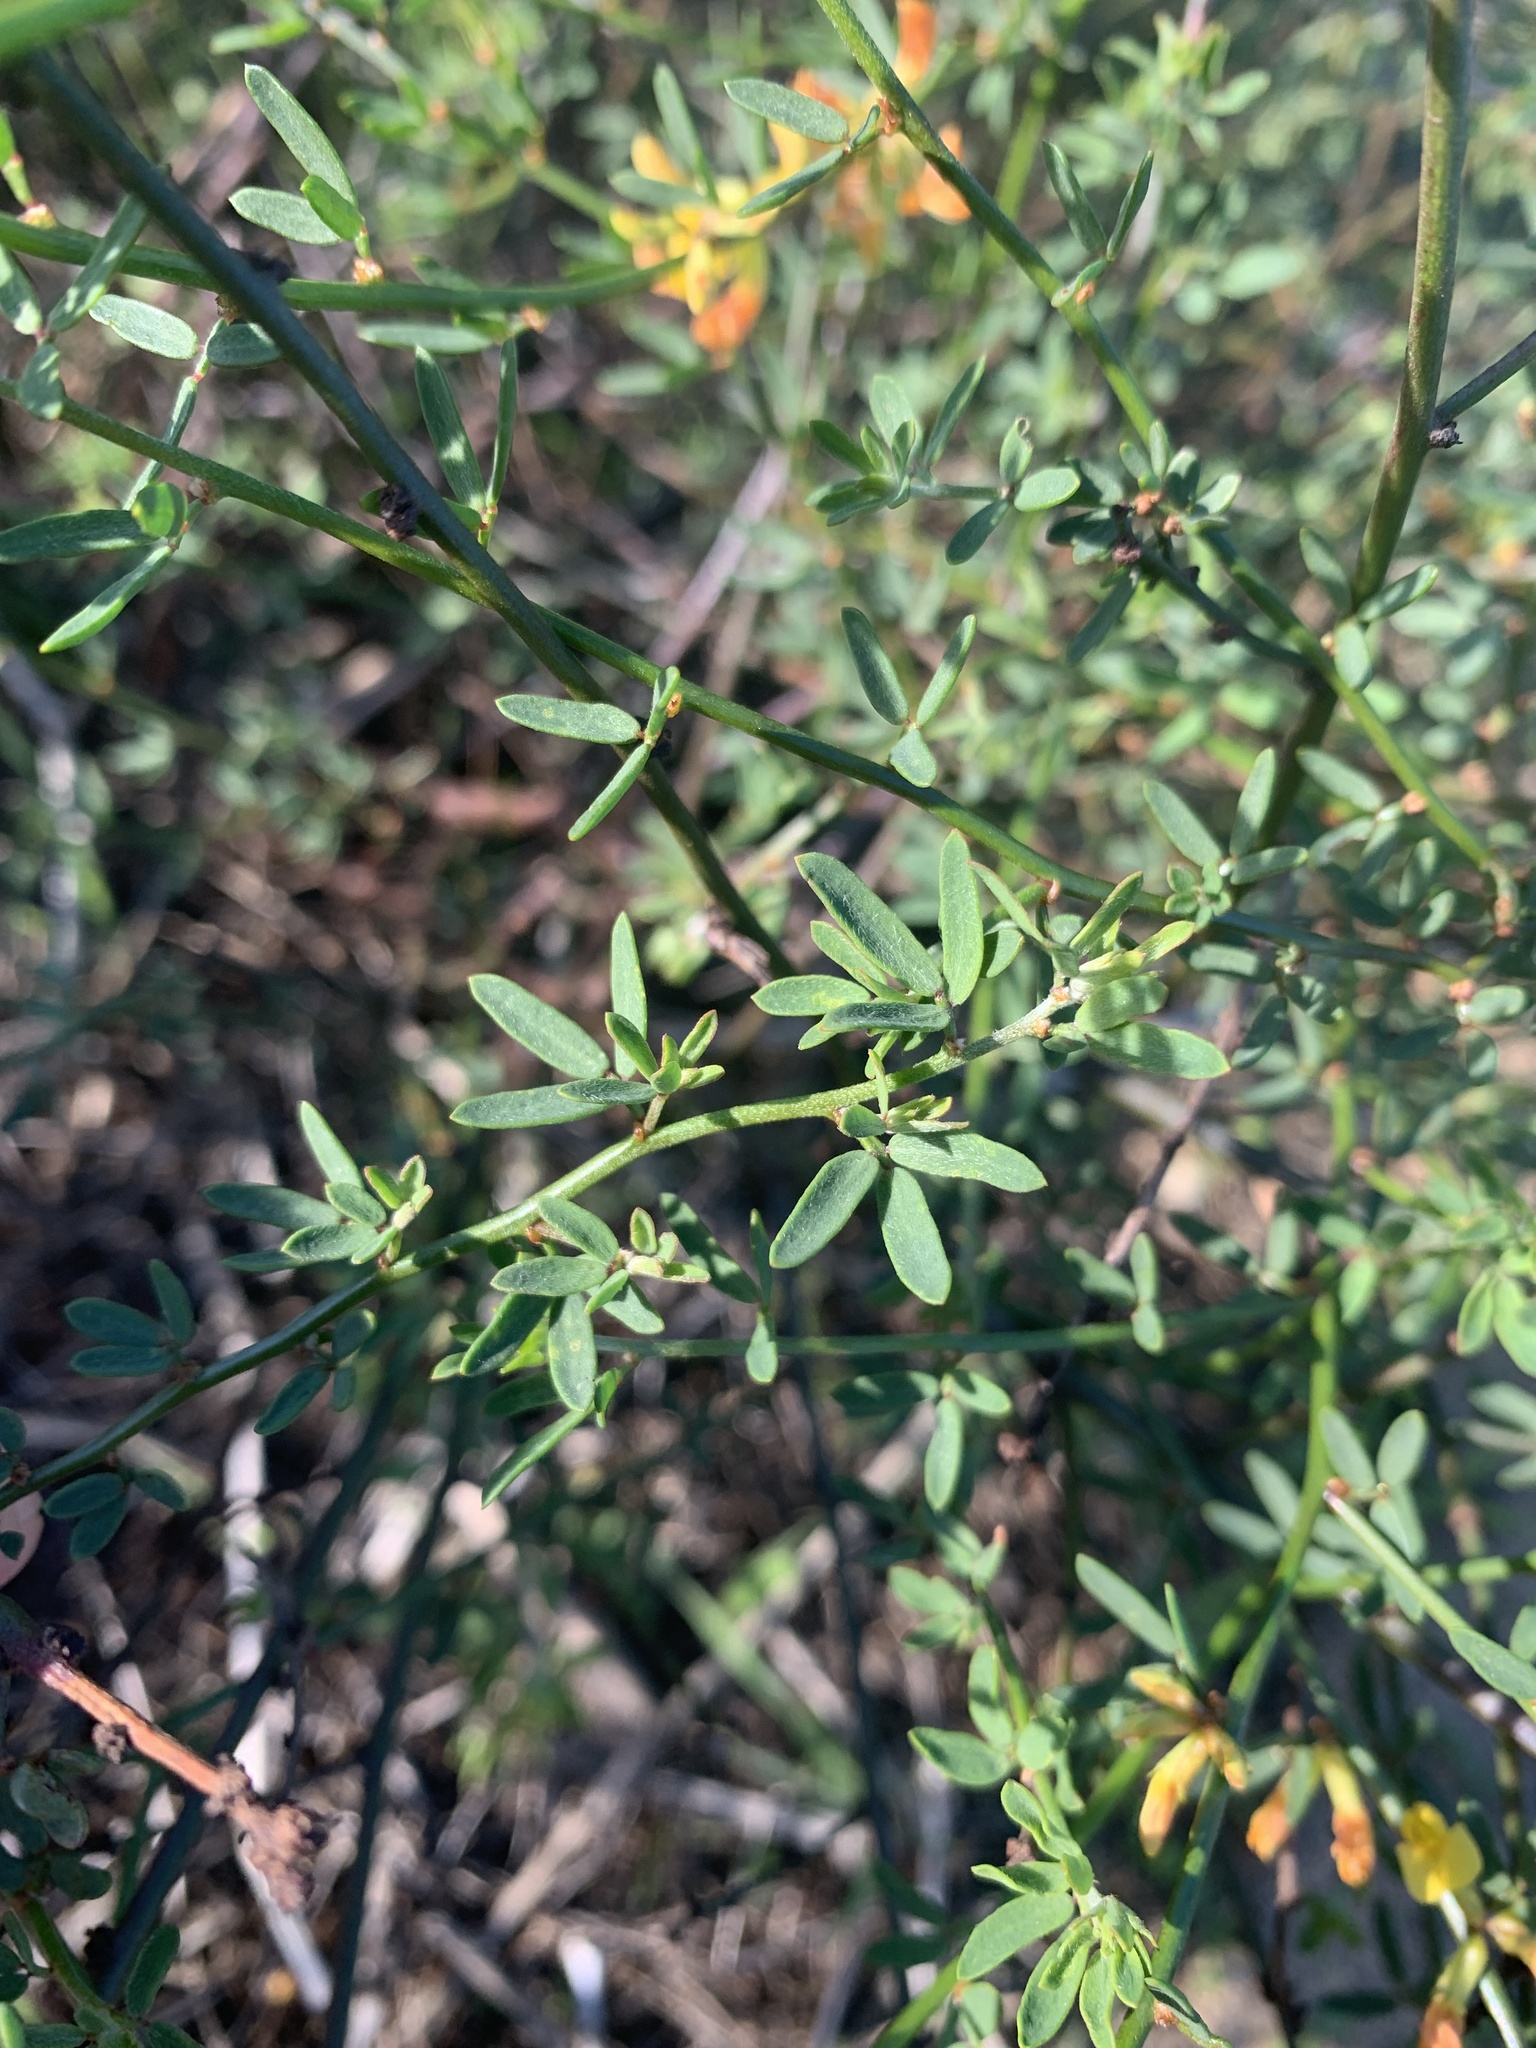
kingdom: Plantae
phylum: Tracheophyta
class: Magnoliopsida
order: Fabales
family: Fabaceae
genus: Acmispon
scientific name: Acmispon glaber
